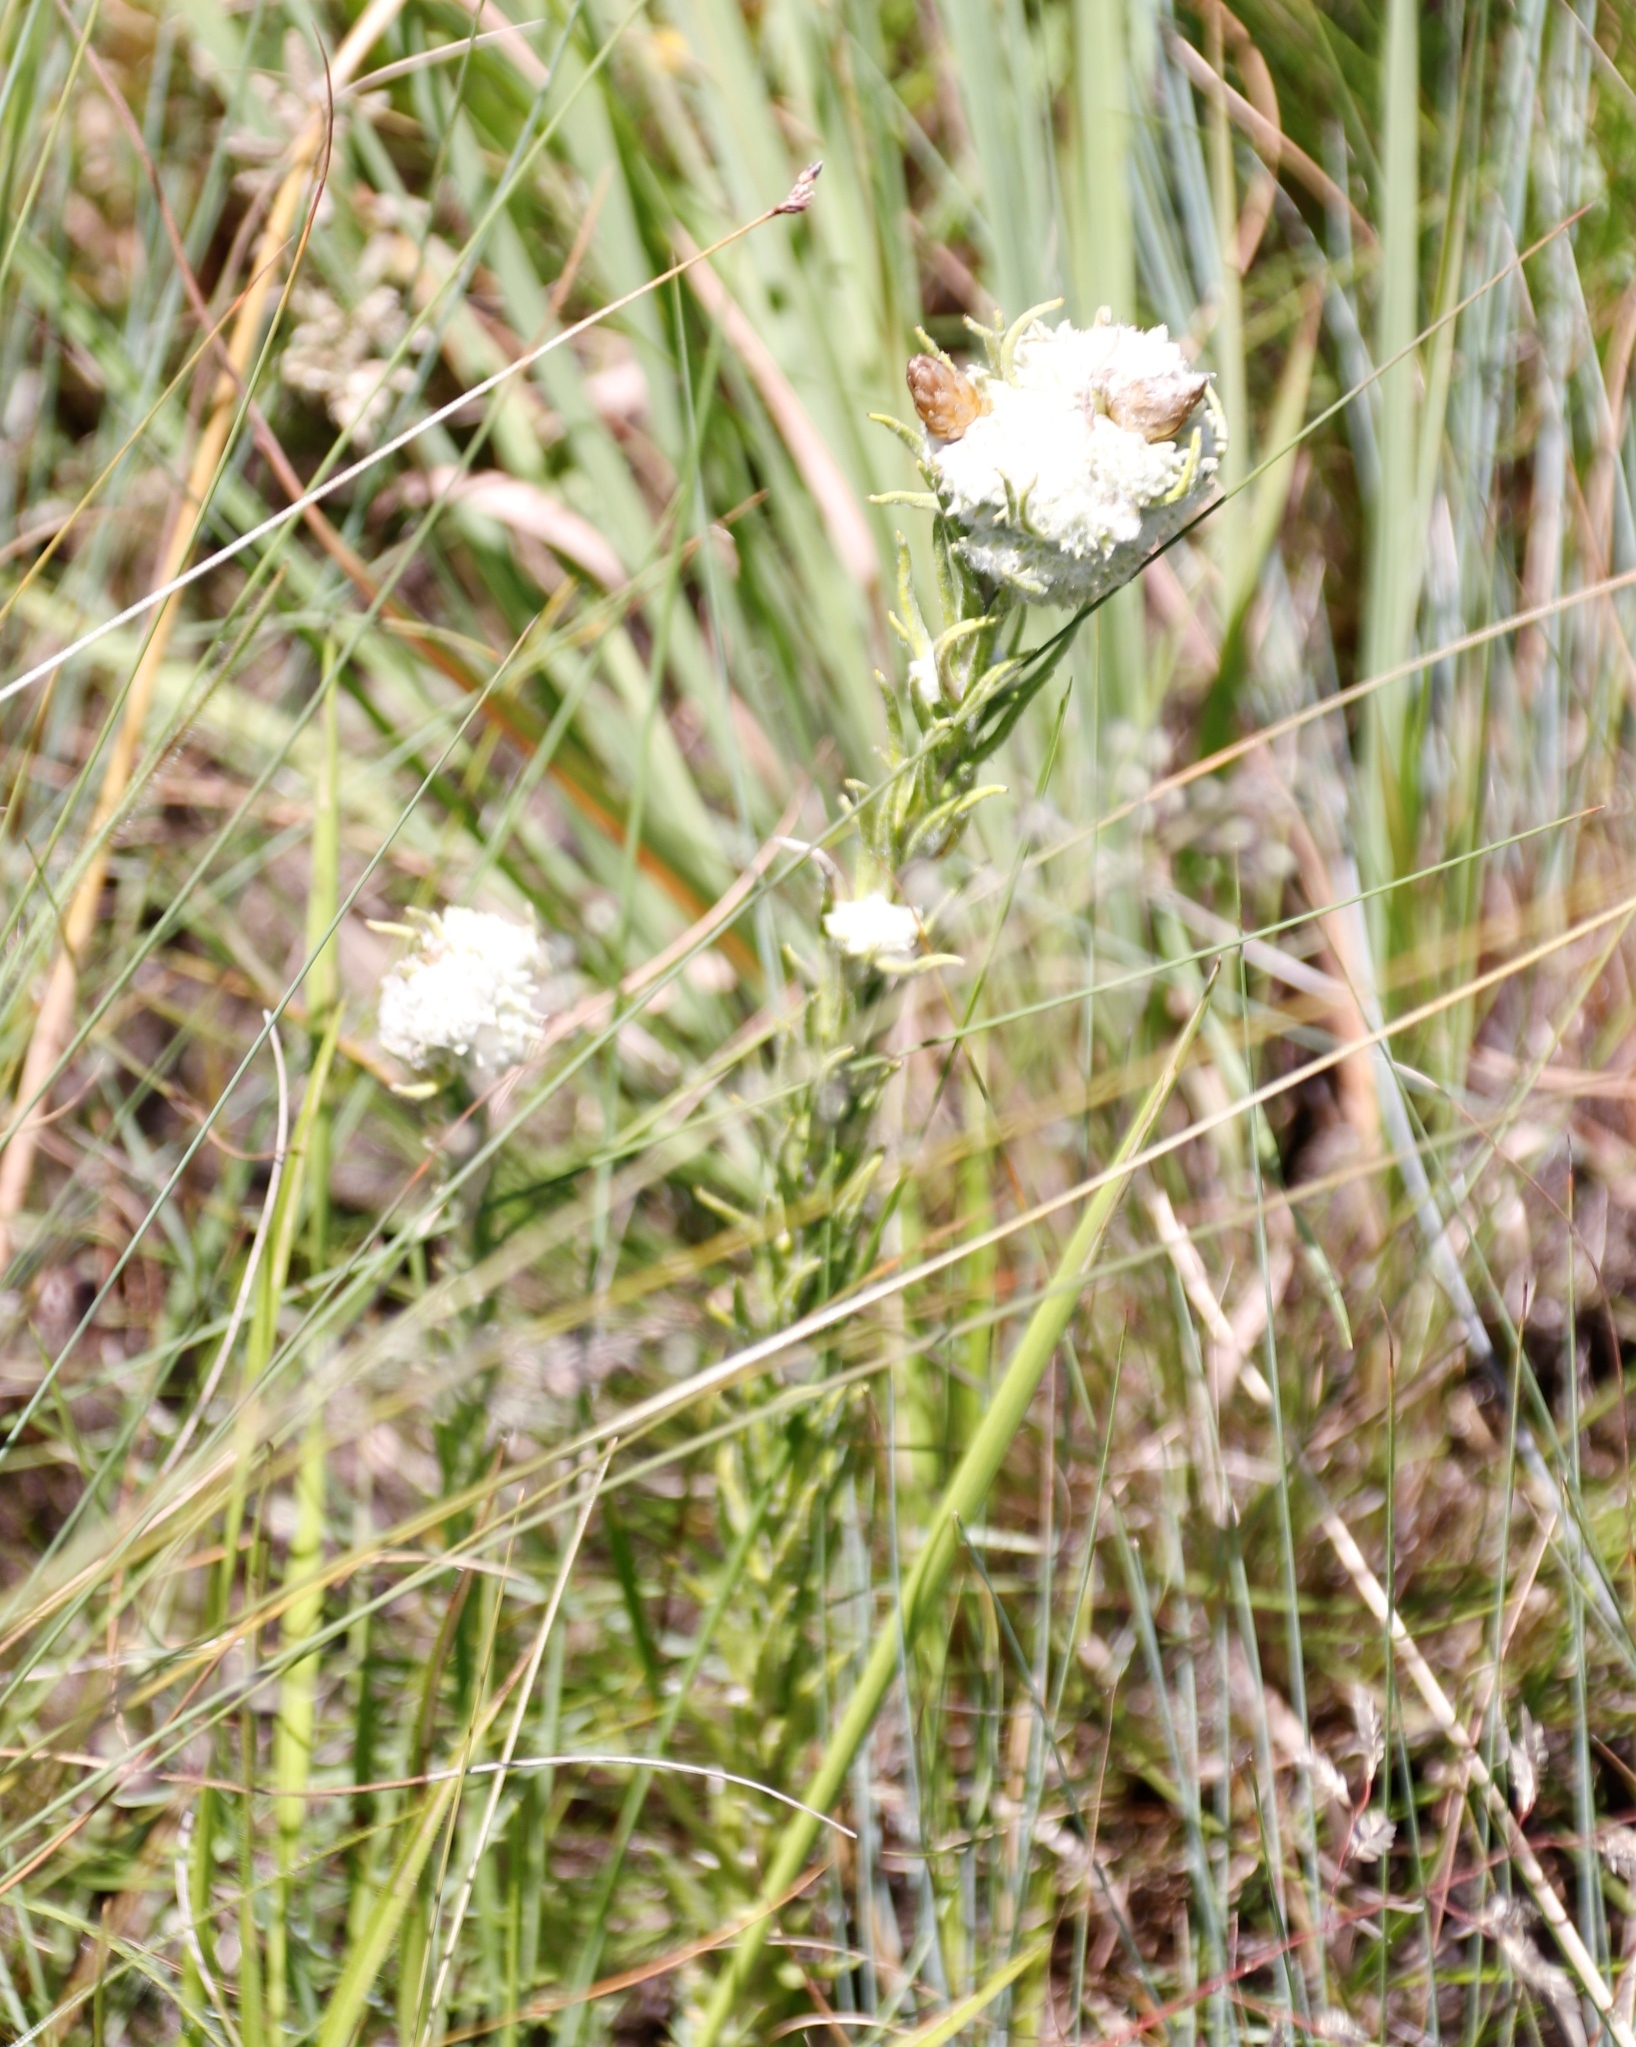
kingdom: Plantae
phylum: Tracheophyta
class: Magnoliopsida
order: Asterales
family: Asteraceae
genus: Helichrysum
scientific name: Helichrysum herbaceum
